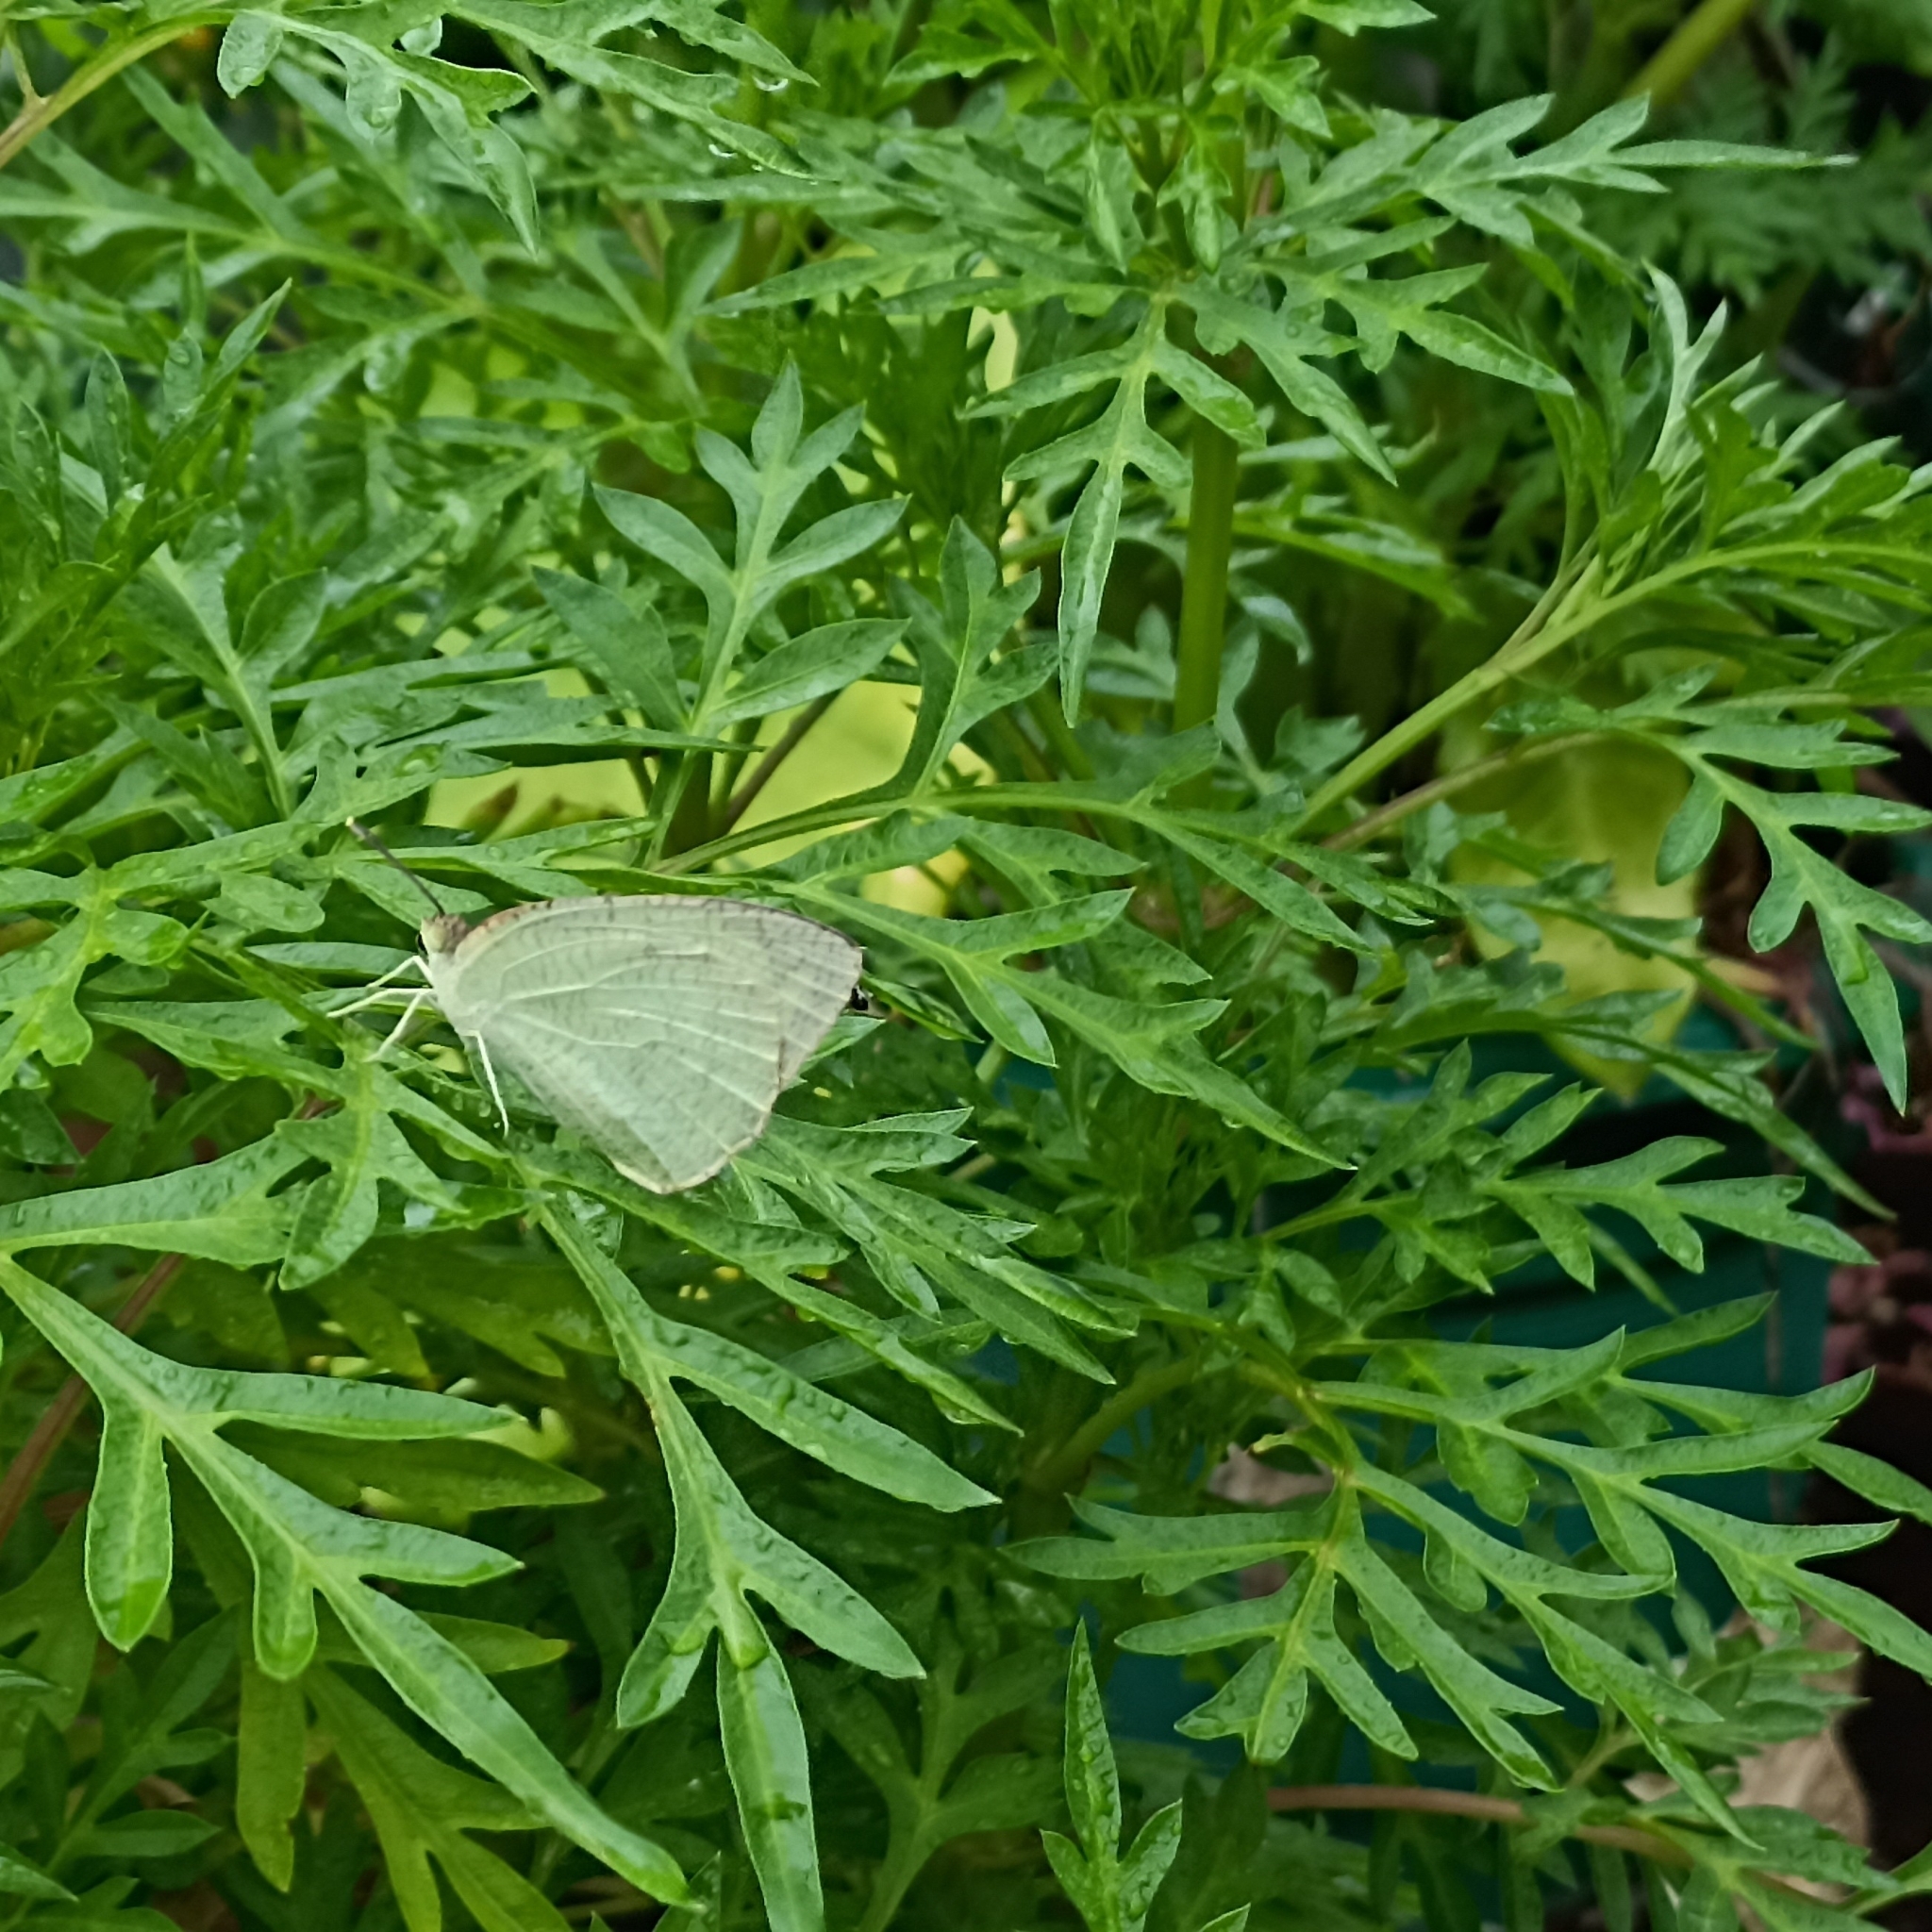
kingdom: Animalia
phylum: Arthropoda
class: Insecta
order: Lepidoptera
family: Pieridae
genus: Catopsilia
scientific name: Catopsilia pyranthe
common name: Mottled emigrant
